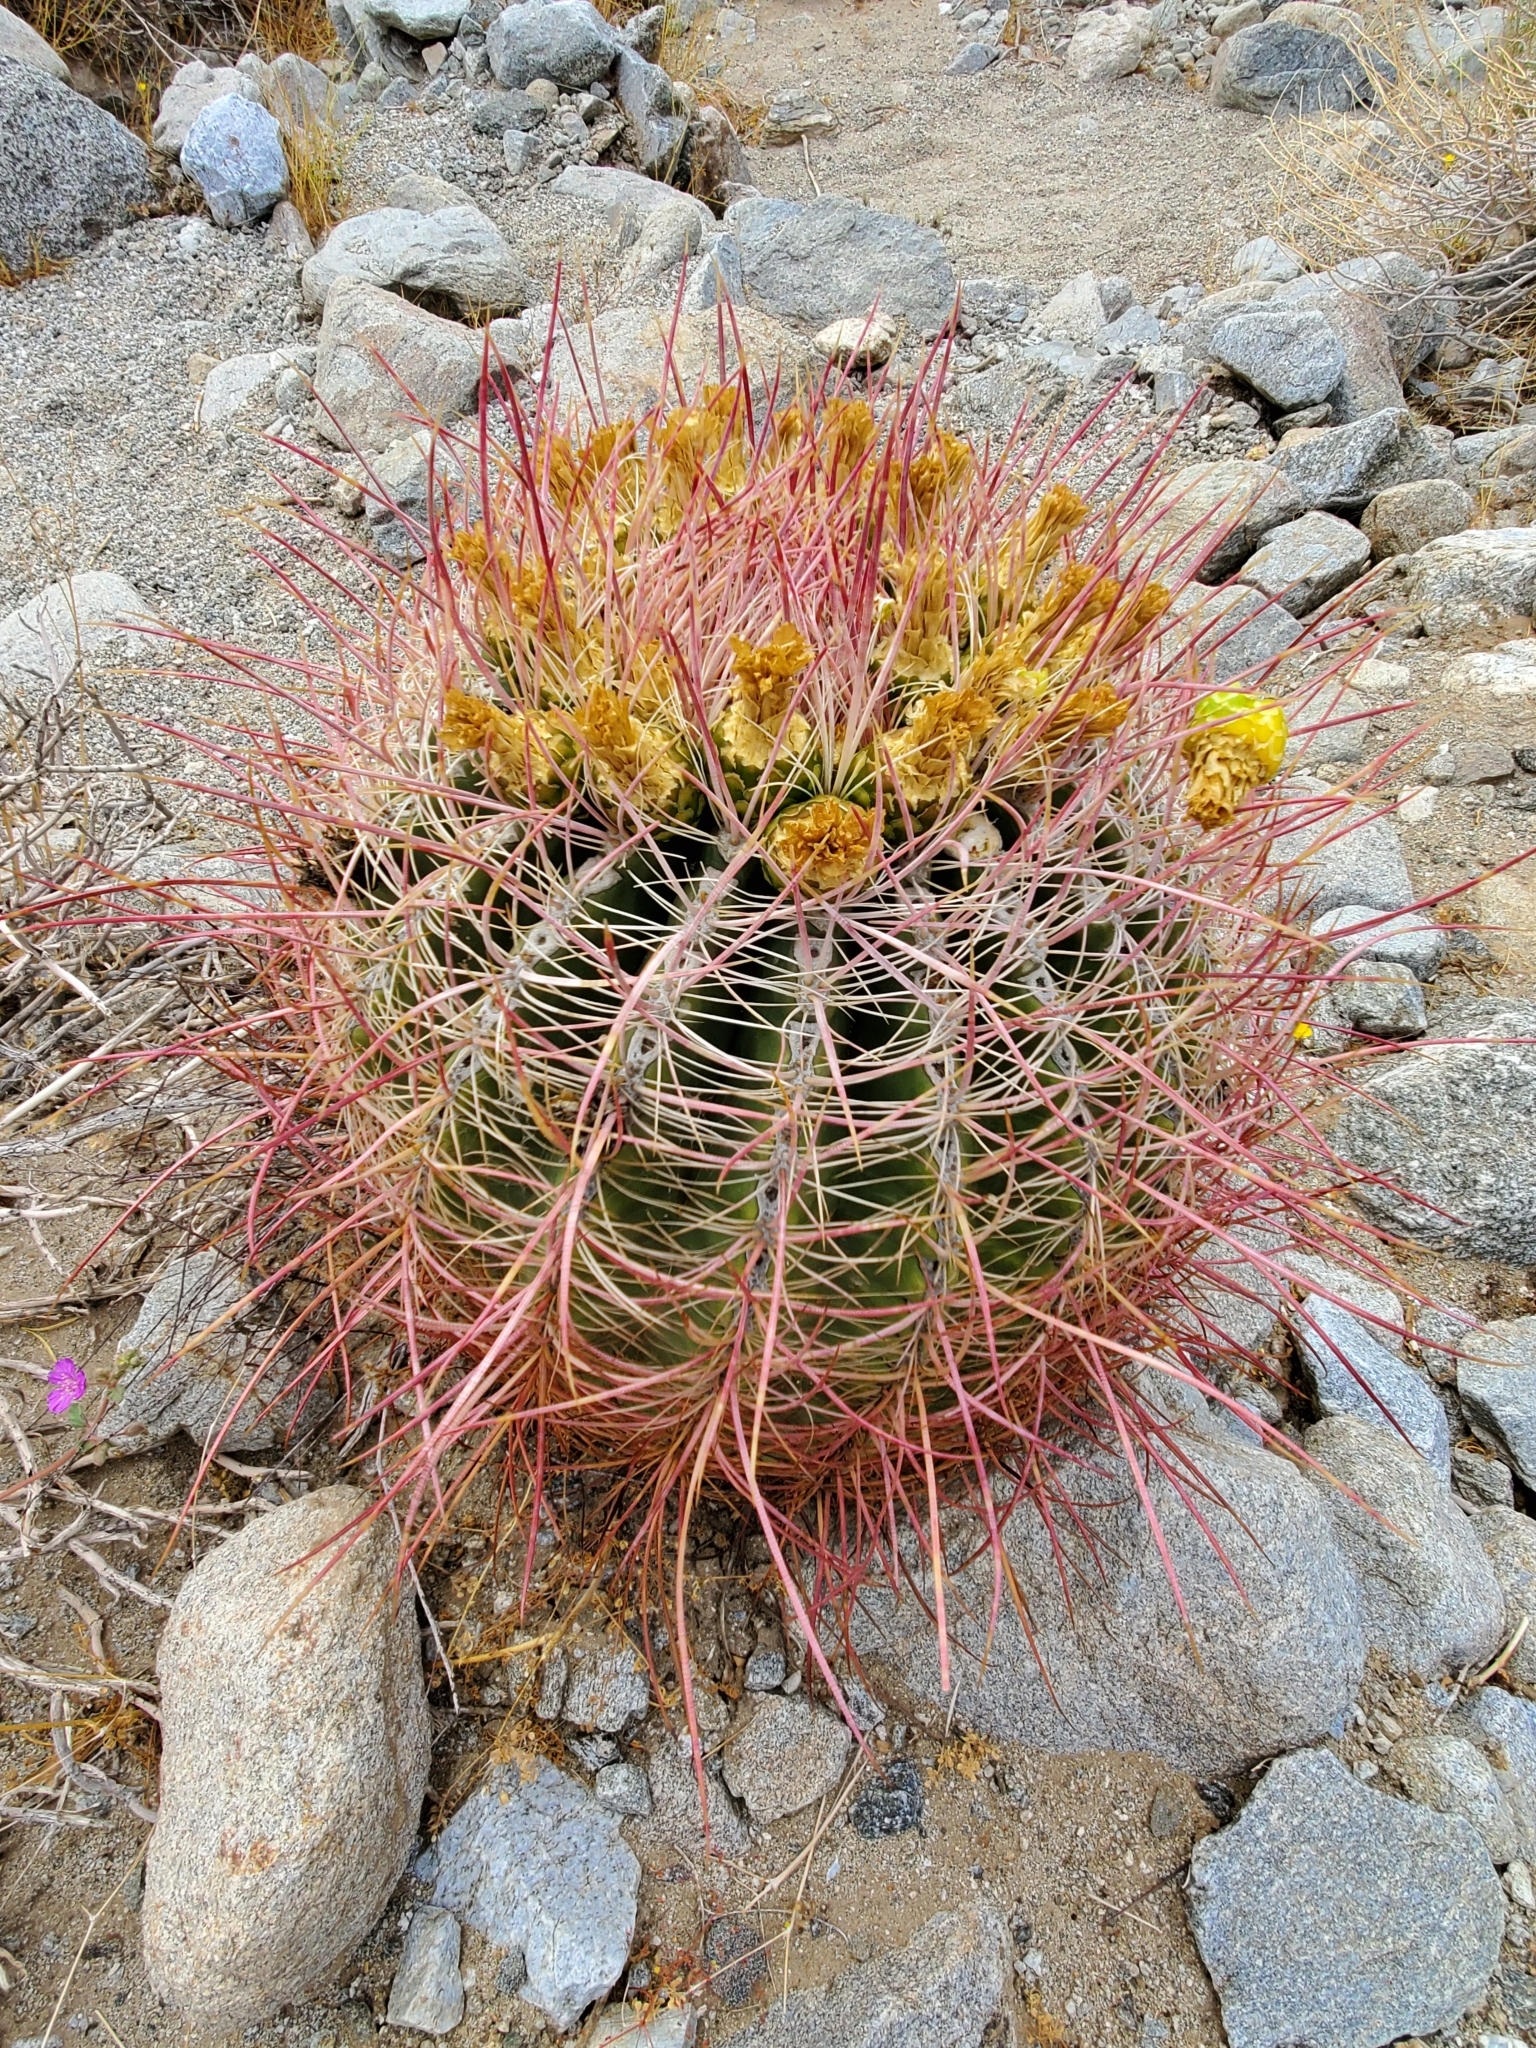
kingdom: Plantae
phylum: Tracheophyta
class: Magnoliopsida
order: Caryophyllales
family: Cactaceae
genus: Ferocactus
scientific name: Ferocactus cylindraceus
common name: California barrel cactus
